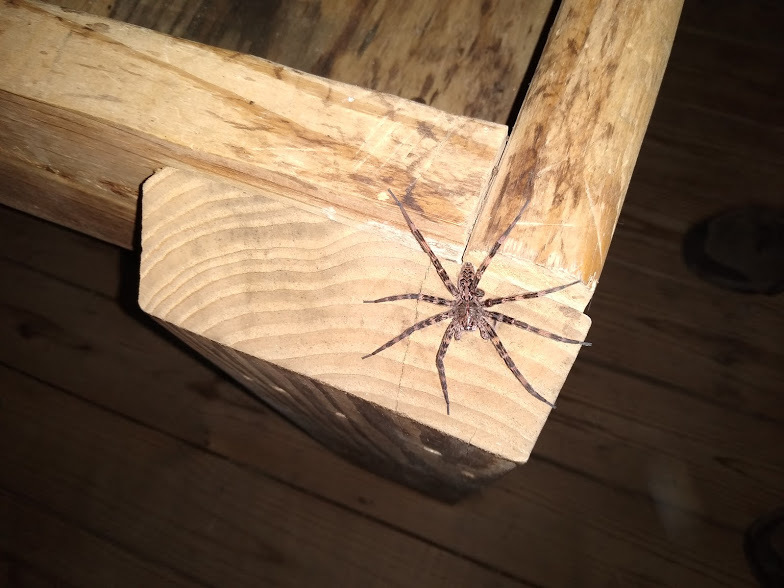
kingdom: Animalia
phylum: Arthropoda
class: Arachnida
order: Araneae
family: Pisauridae
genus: Dolomedes
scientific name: Dolomedes tenebrosus
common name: Dark fishing spider
